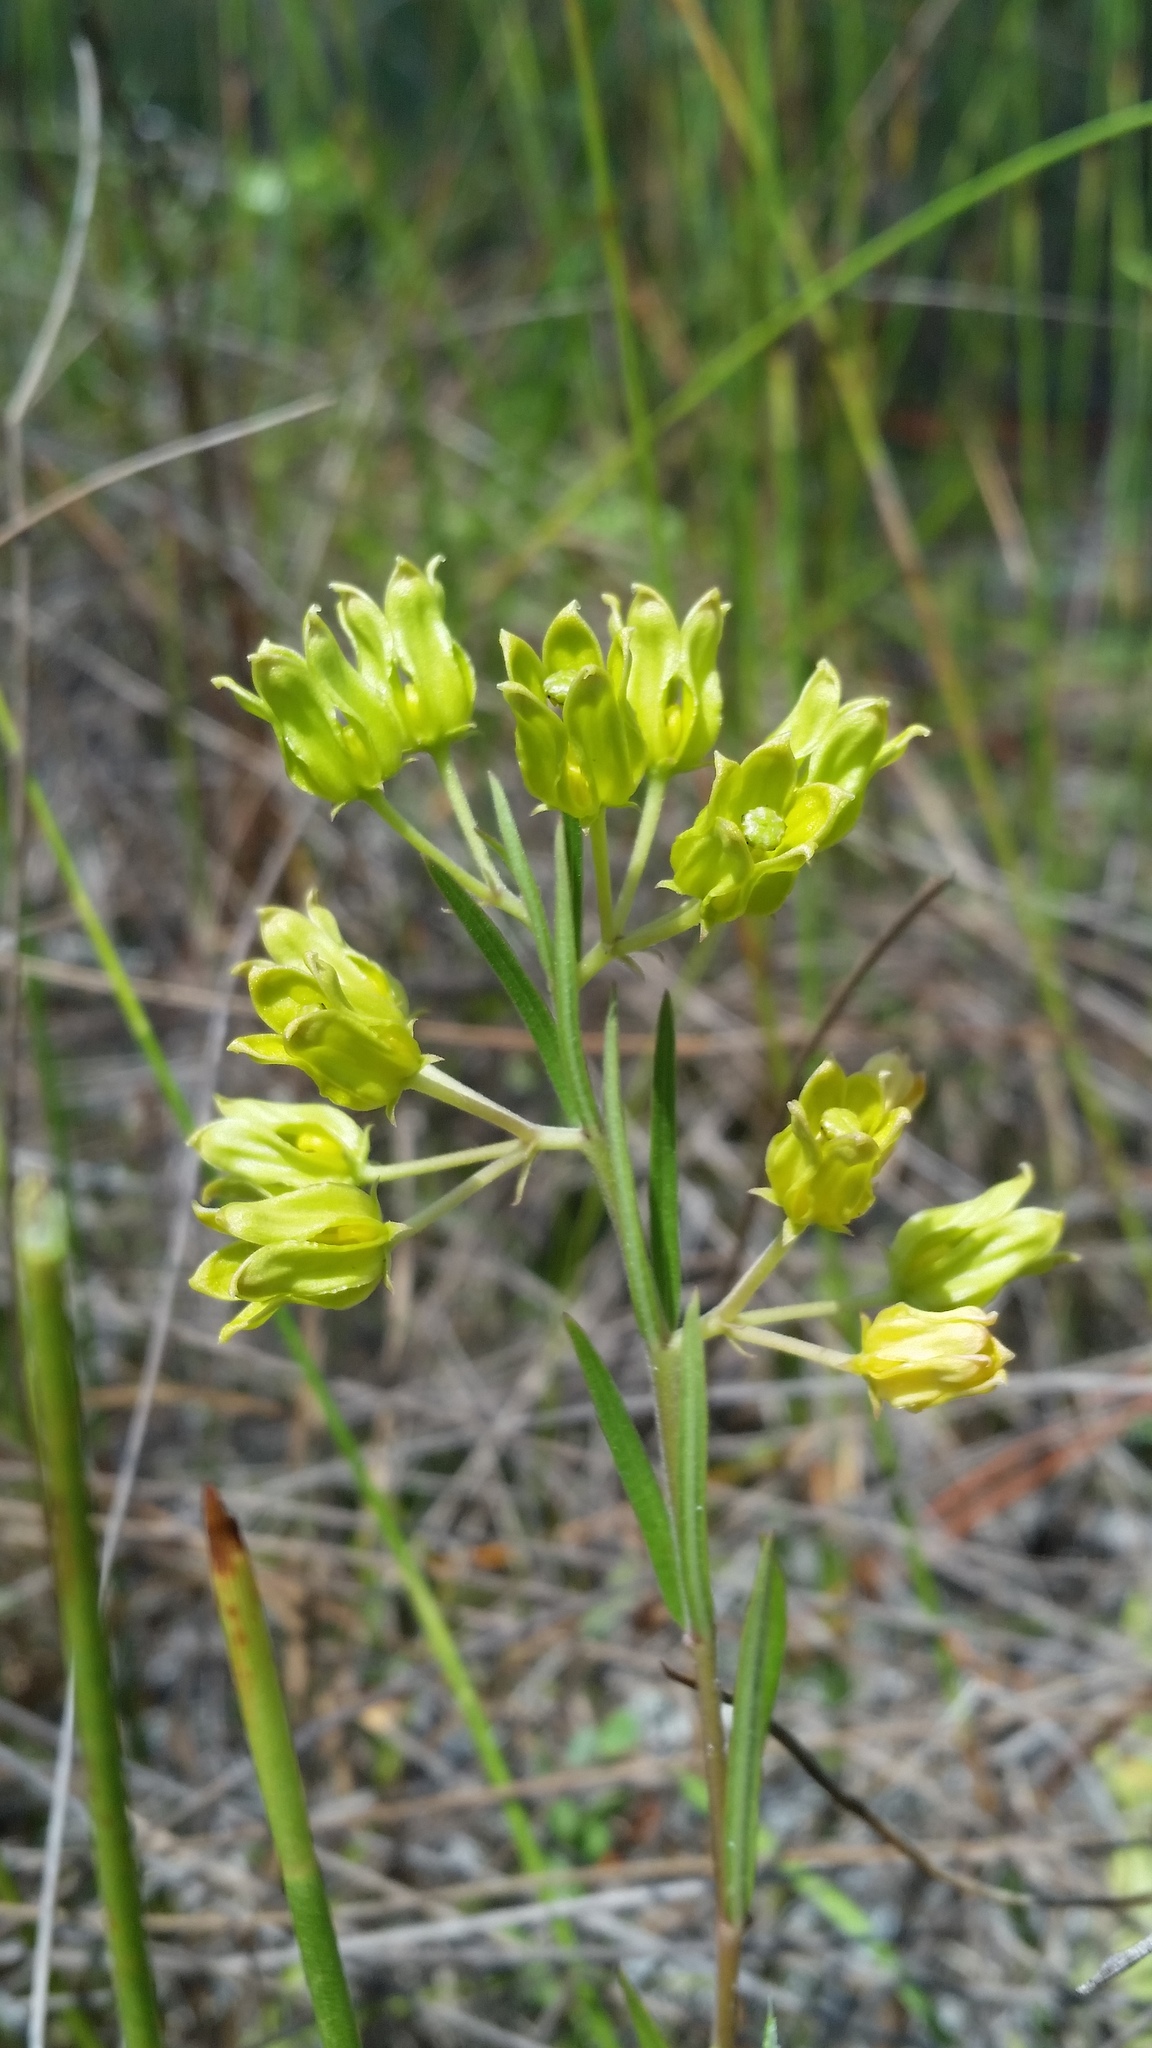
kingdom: Plantae
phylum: Tracheophyta
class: Magnoliopsida
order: Gentianales
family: Apocynaceae
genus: Asclepias
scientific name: Asclepias pedicellata
